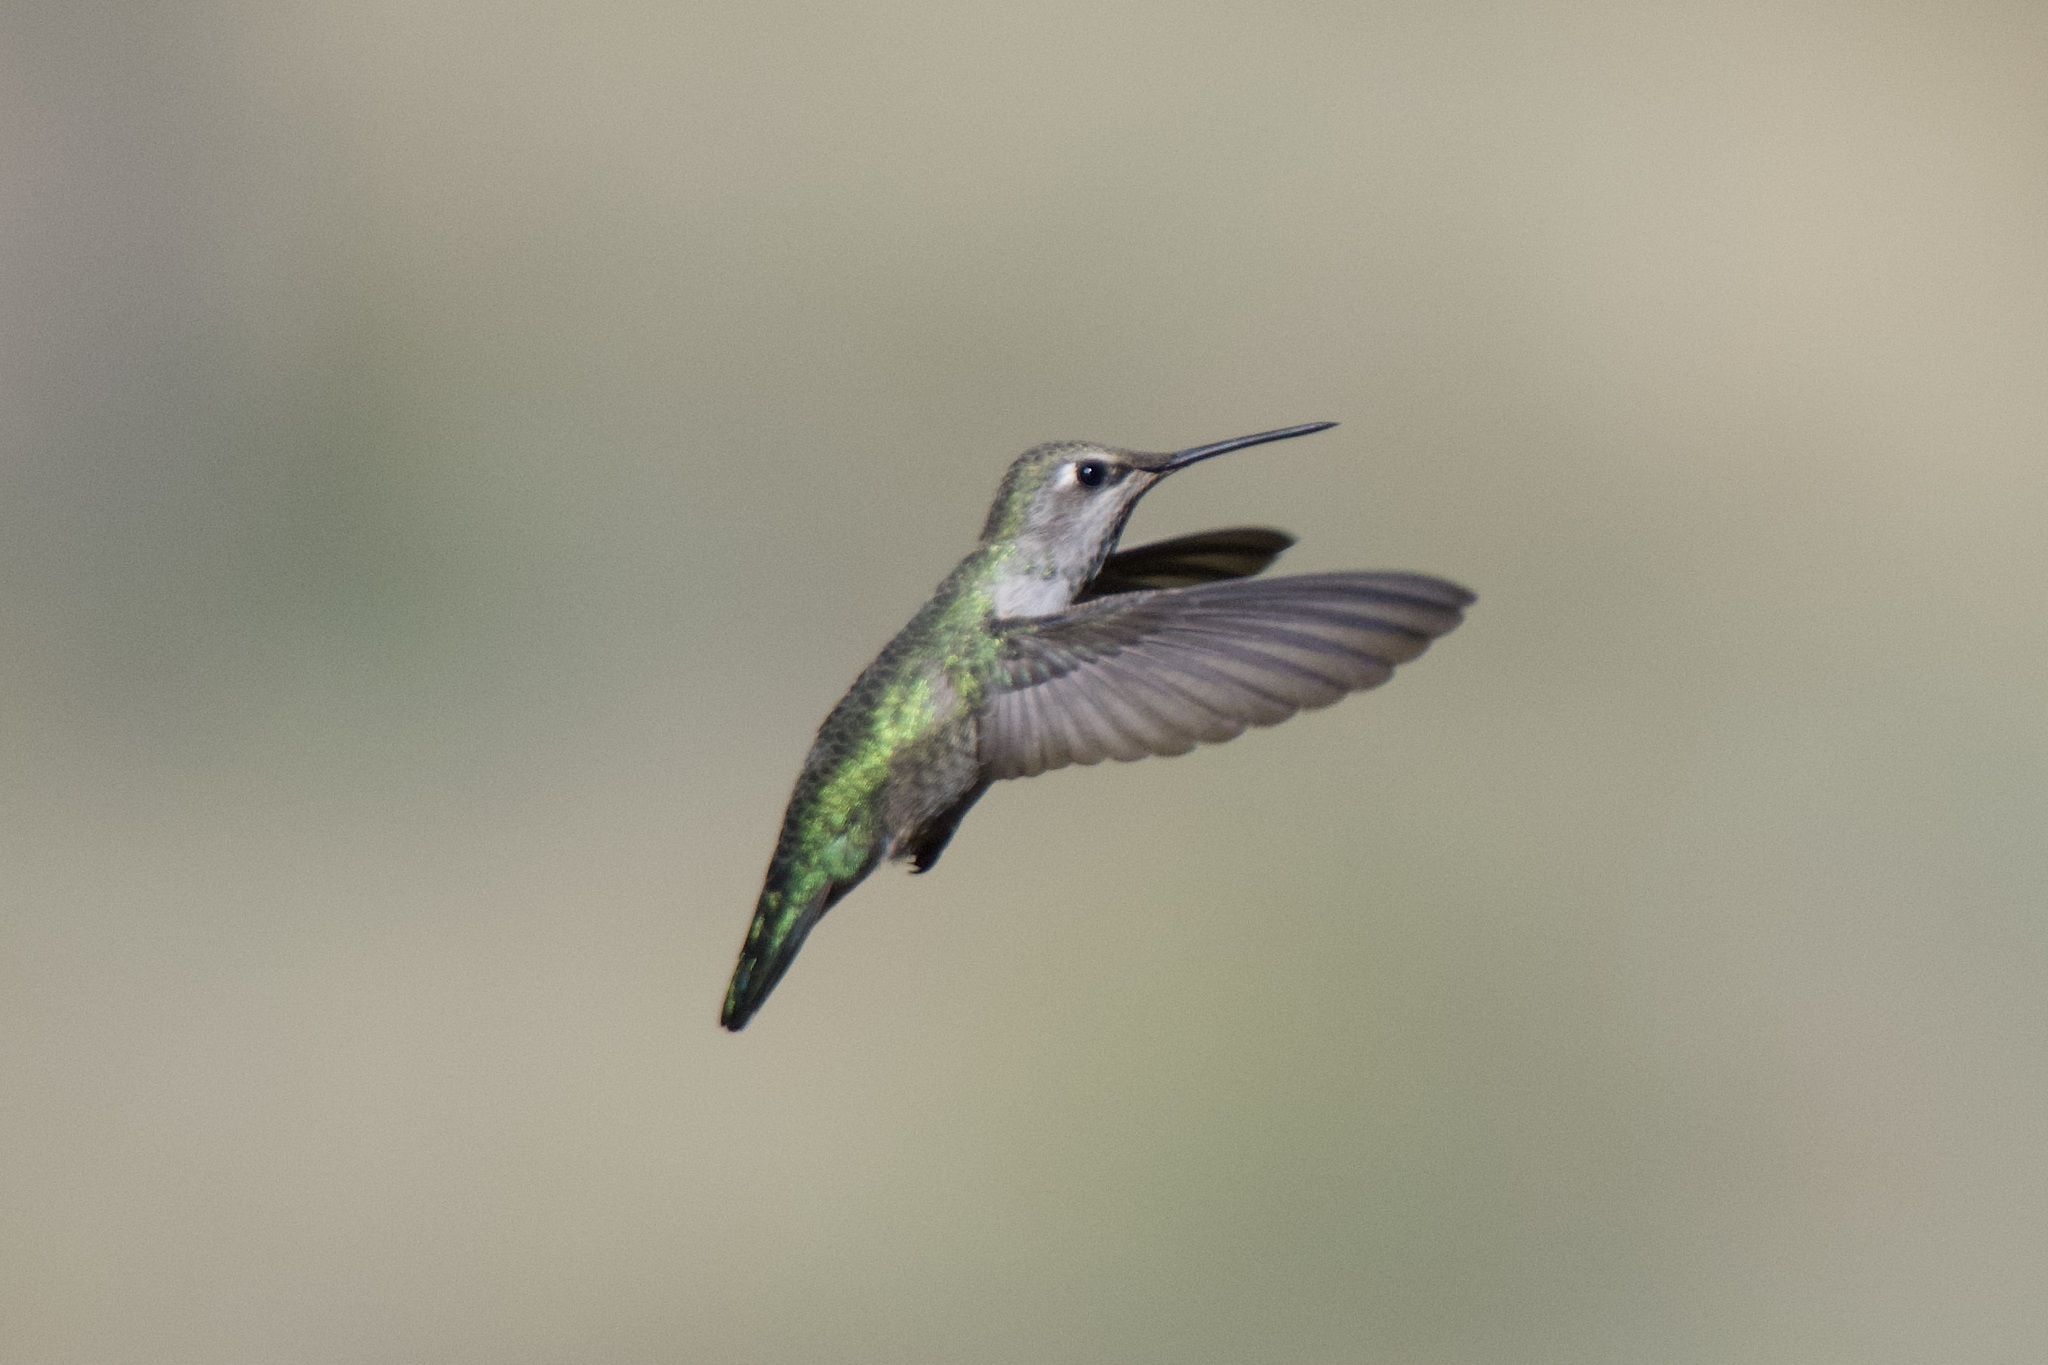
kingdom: Animalia
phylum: Chordata
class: Aves
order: Apodiformes
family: Trochilidae
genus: Calypte
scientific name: Calypte anna
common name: Anna's hummingbird
